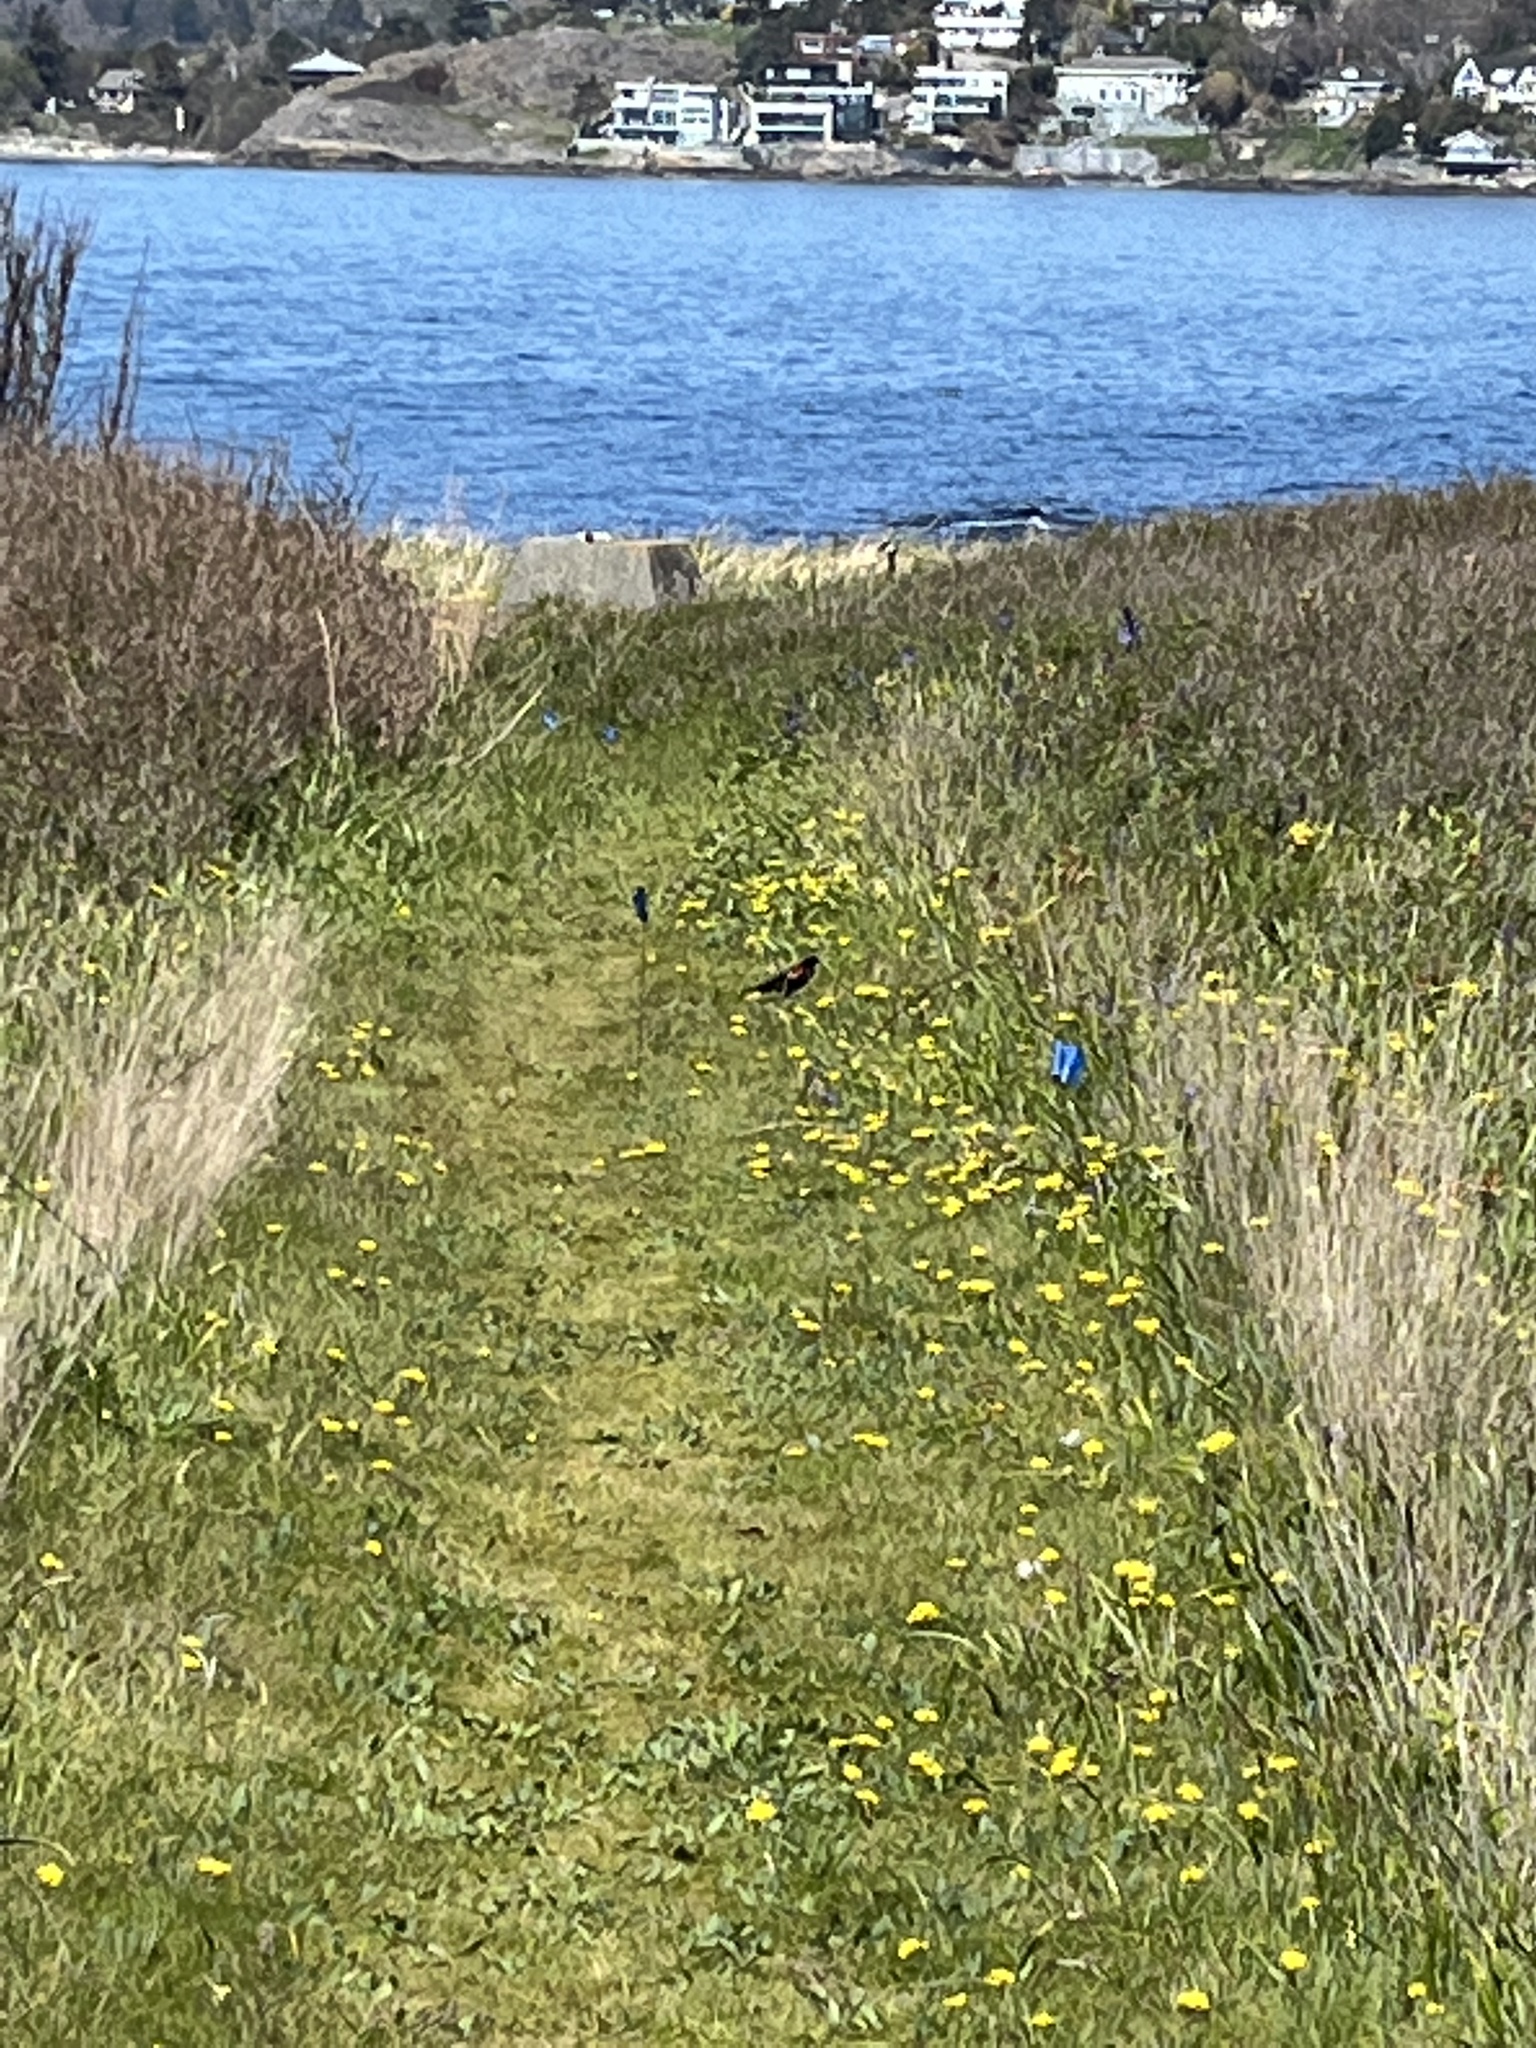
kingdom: Animalia
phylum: Chordata
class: Aves
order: Passeriformes
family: Icteridae
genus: Agelaius
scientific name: Agelaius phoeniceus
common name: Red-winged blackbird
